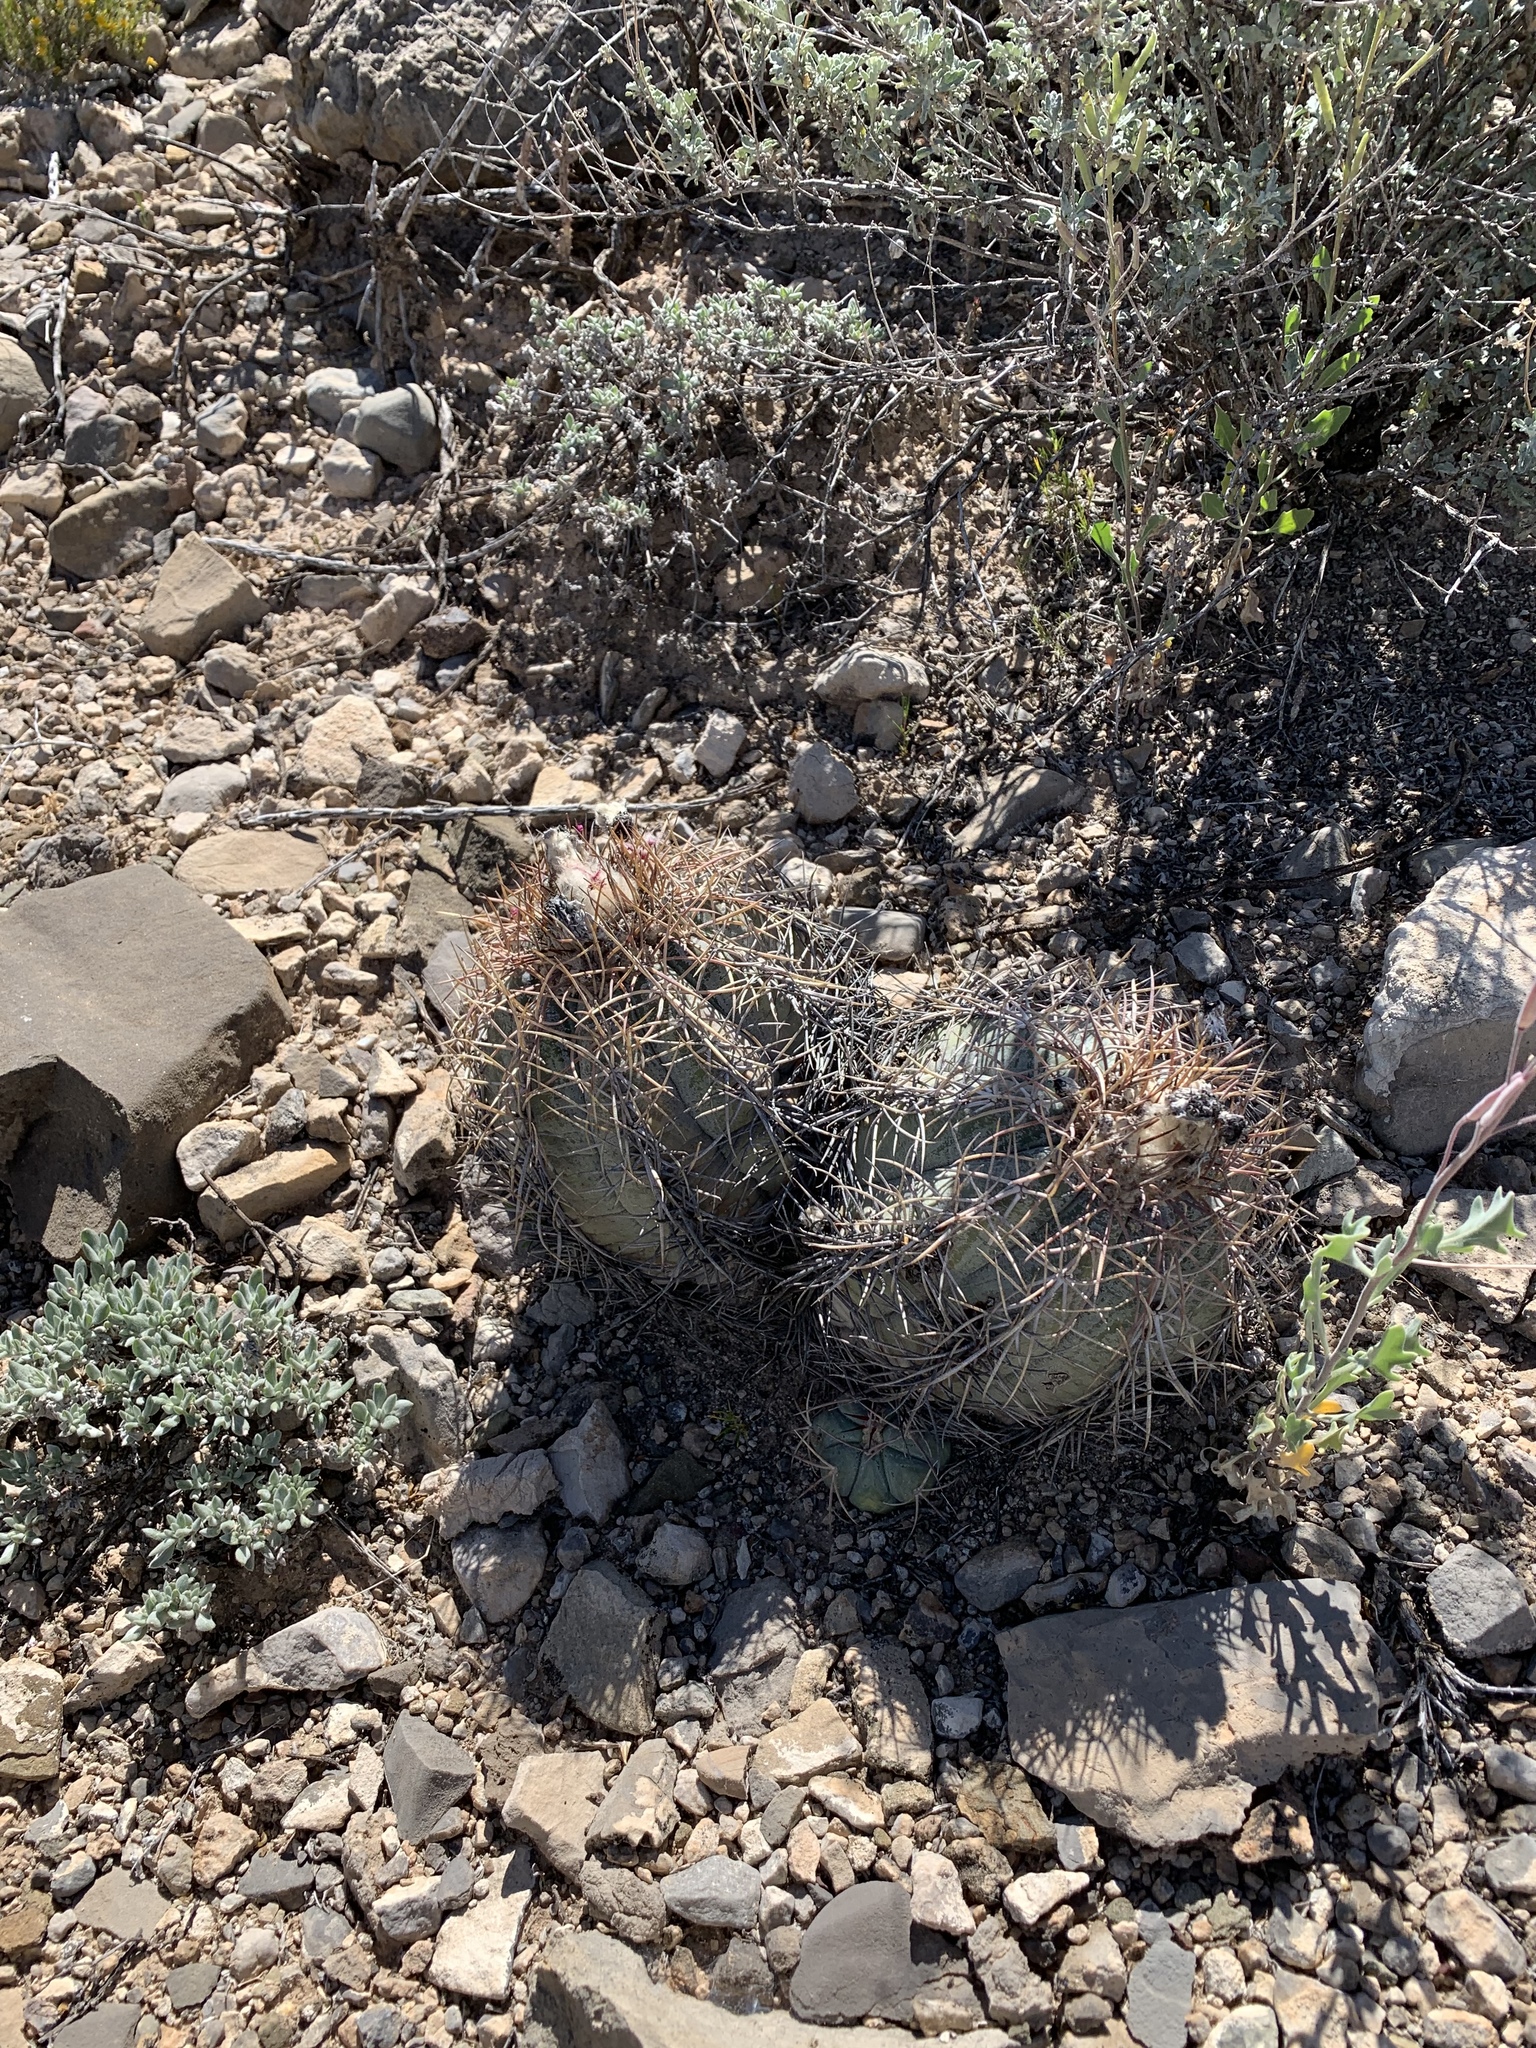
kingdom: Plantae
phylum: Tracheophyta
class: Magnoliopsida
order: Caryophyllales
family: Cactaceae
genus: Echinocactus
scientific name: Echinocactus horizonthalonius
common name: Devilshead
